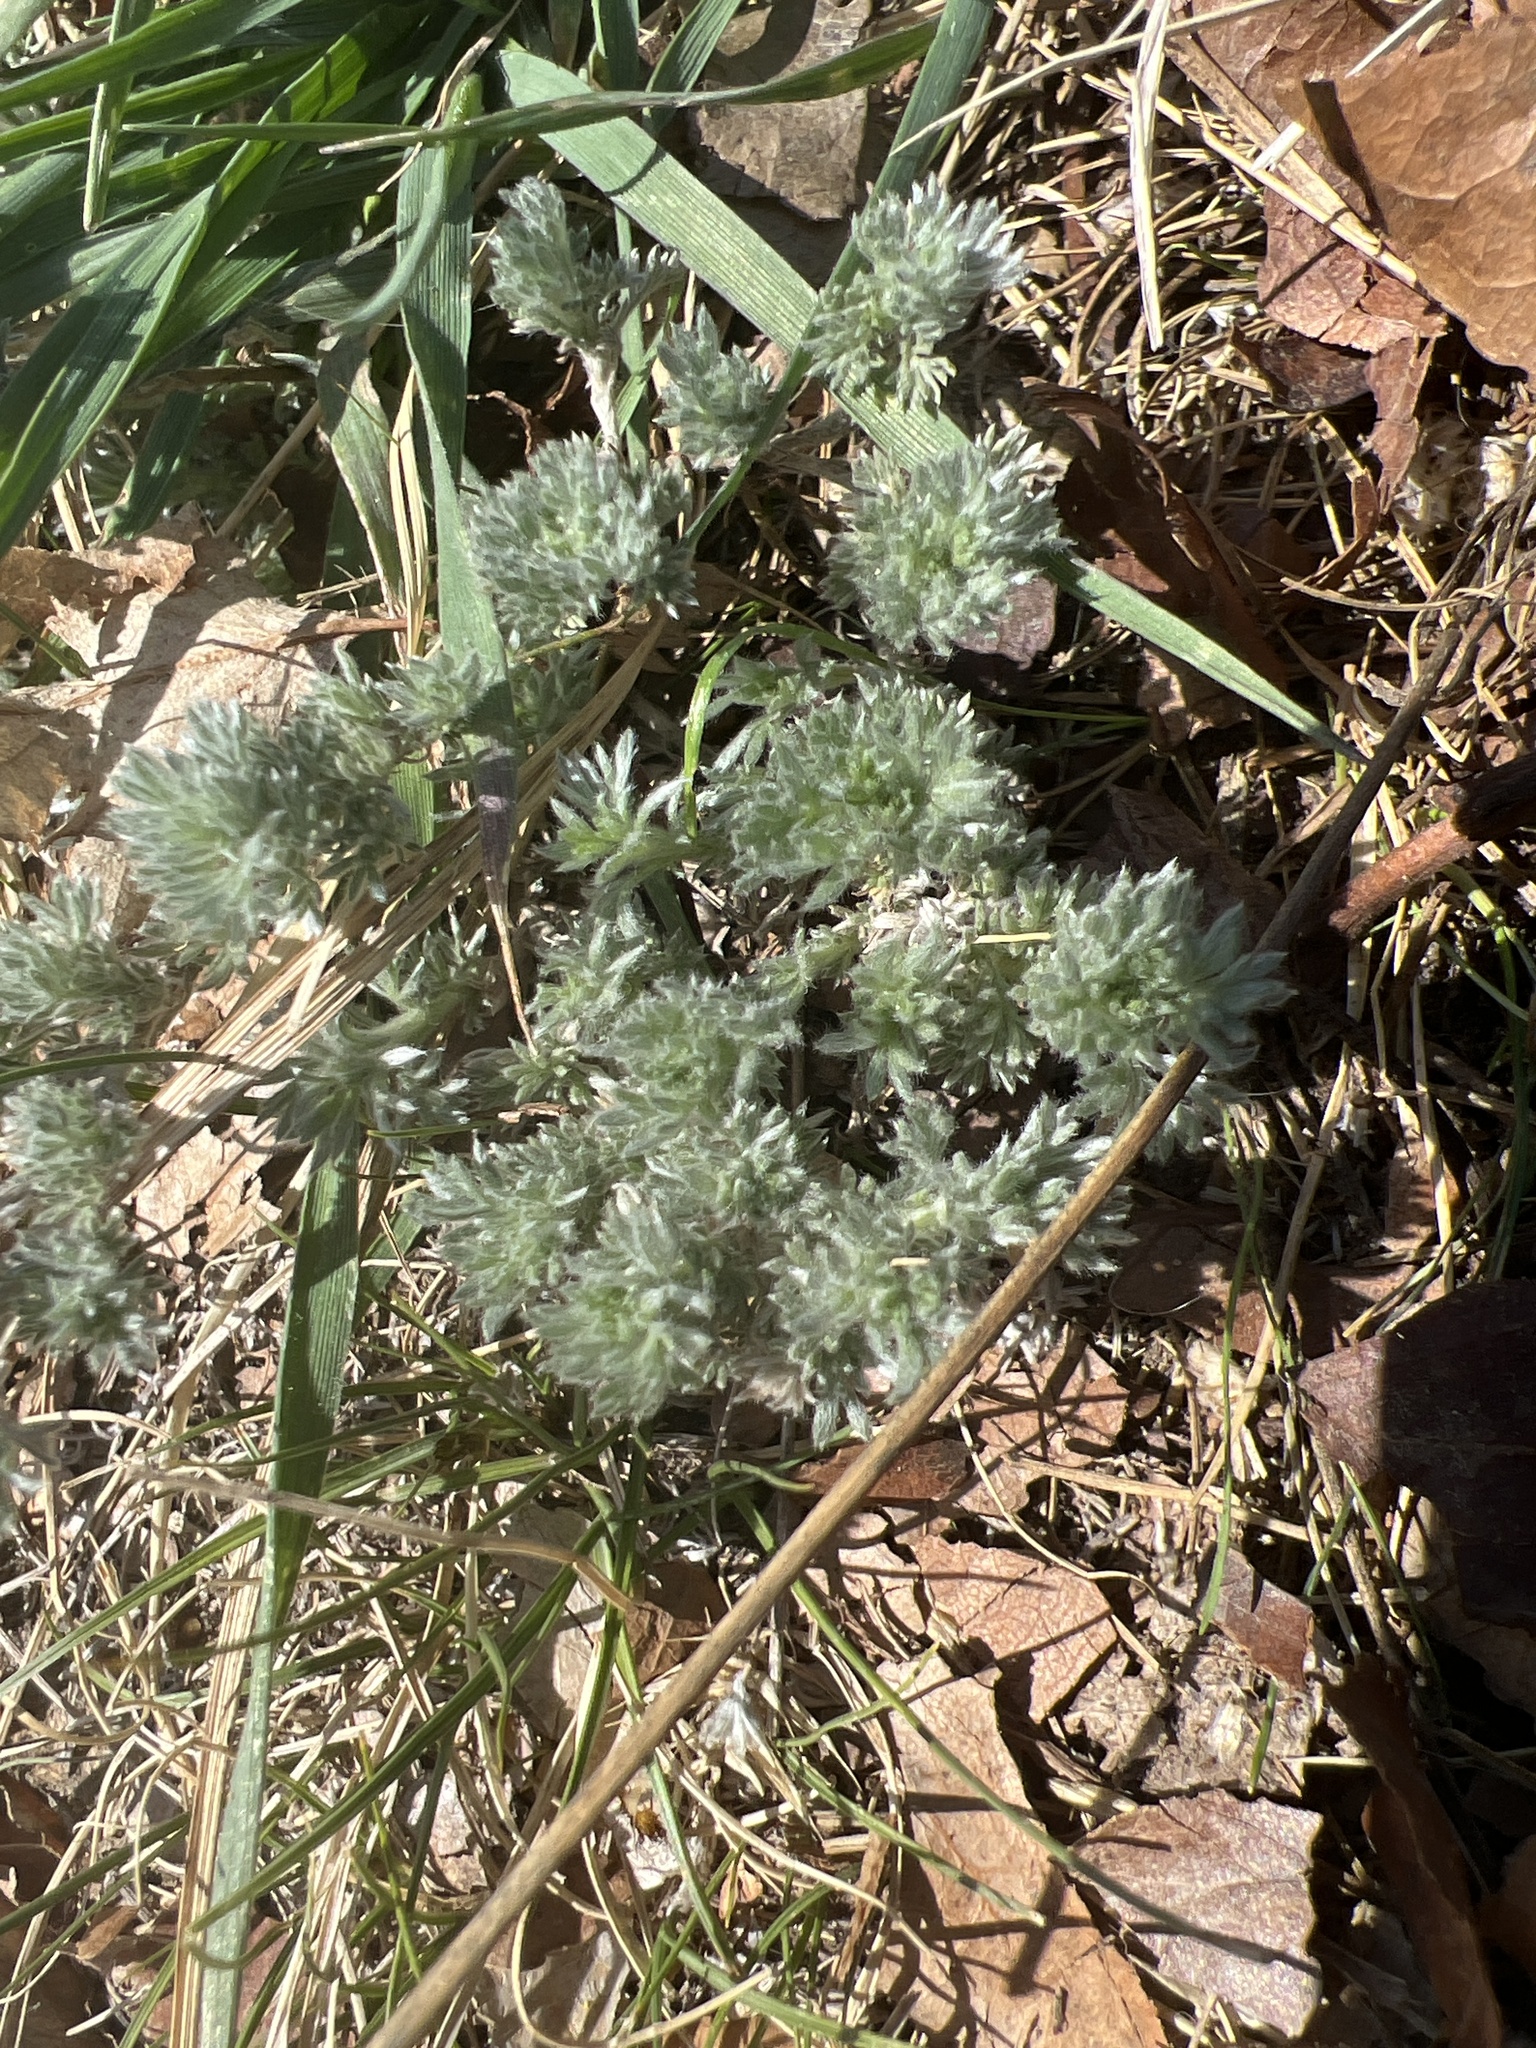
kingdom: Plantae
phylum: Tracheophyta
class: Magnoliopsida
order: Asterales
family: Asteraceae
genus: Artemisia
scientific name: Artemisia frigida
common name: Prairie sagewort
